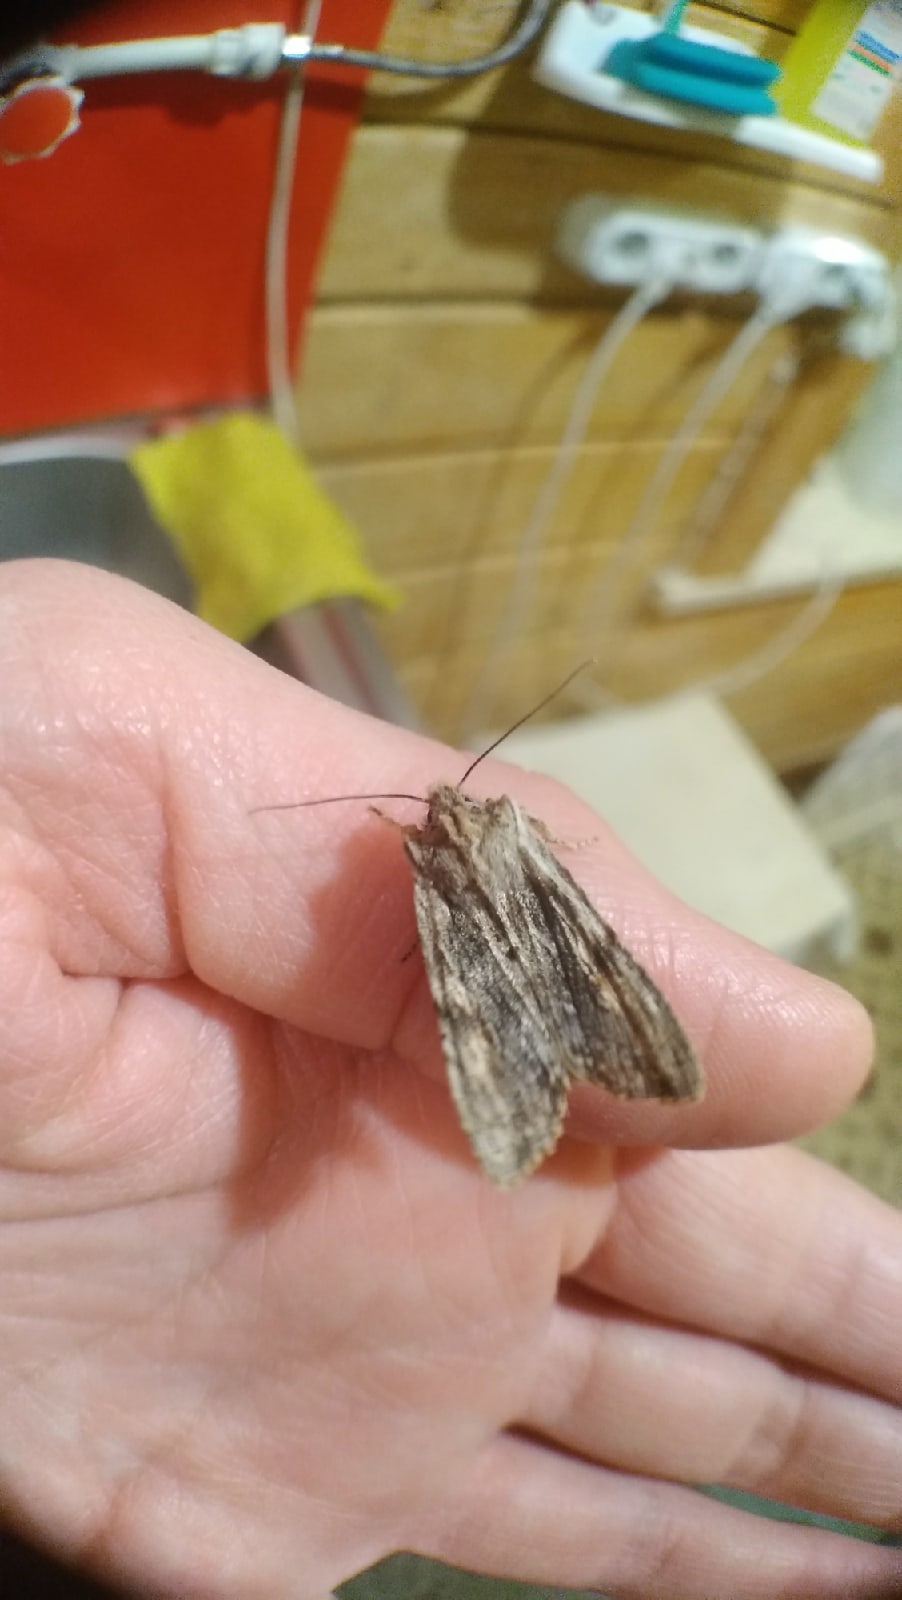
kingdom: Animalia
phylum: Arthropoda
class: Insecta
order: Lepidoptera
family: Noctuidae
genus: Lithophane
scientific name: Lithophane socia
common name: Pale pinion
